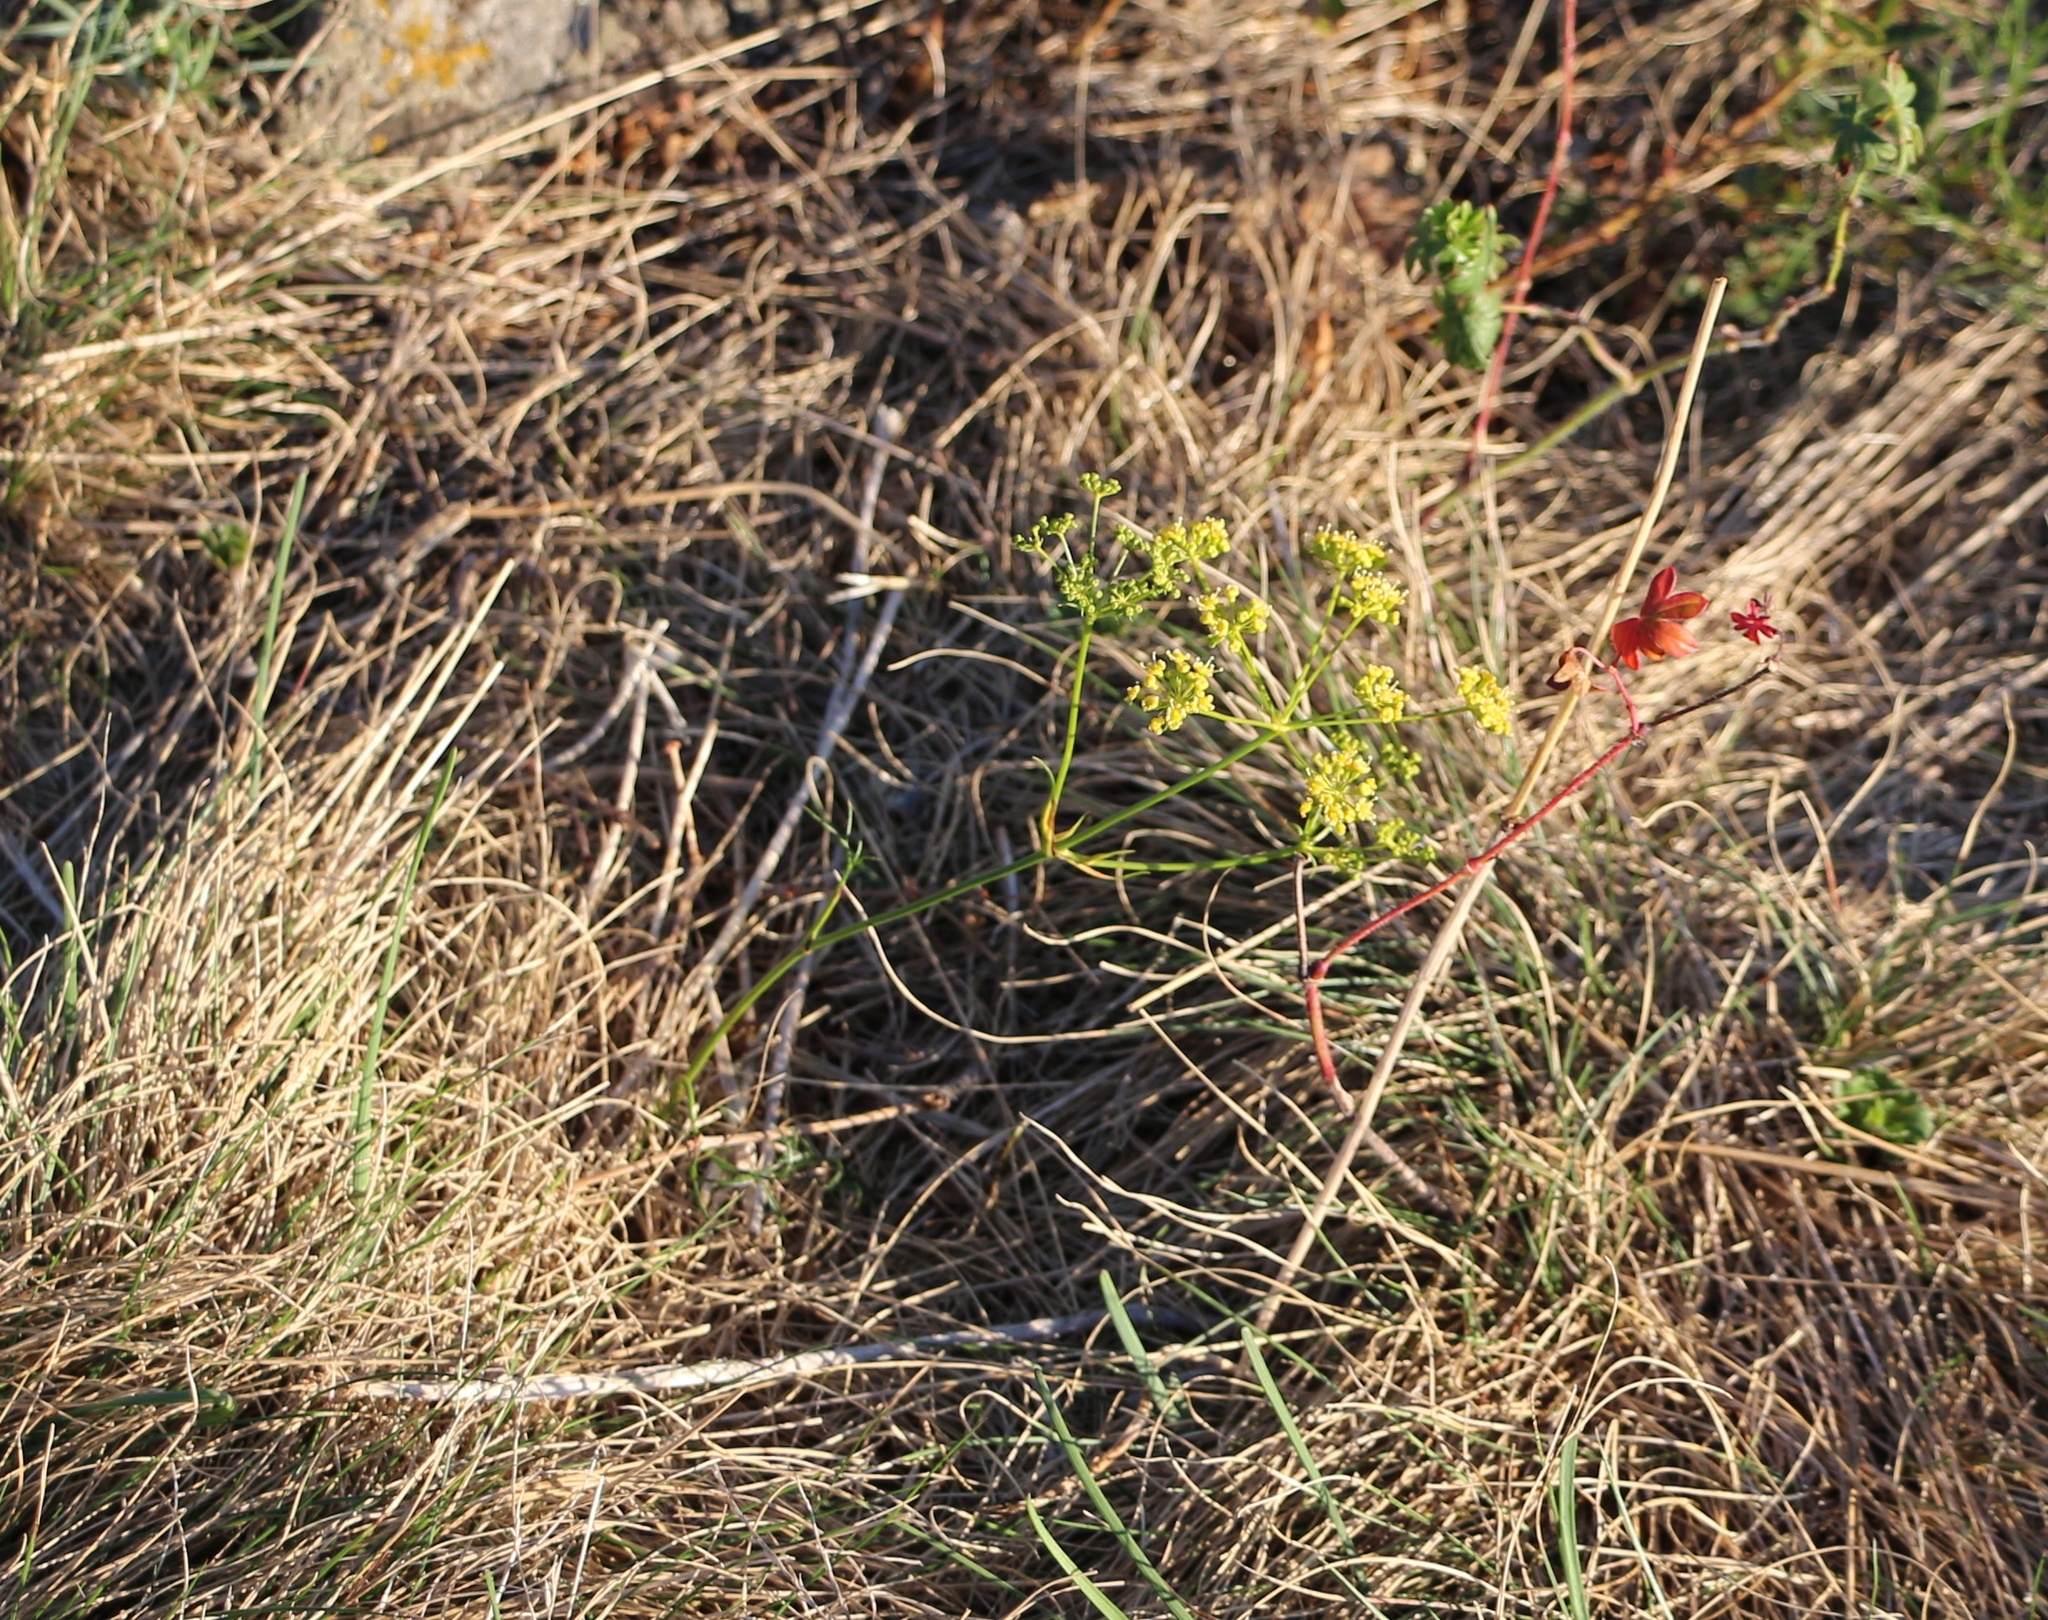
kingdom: Plantae
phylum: Tracheophyta
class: Magnoliopsida
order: Apiales
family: Apiaceae
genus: Peucedanum
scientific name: Peucedanum longifolium
